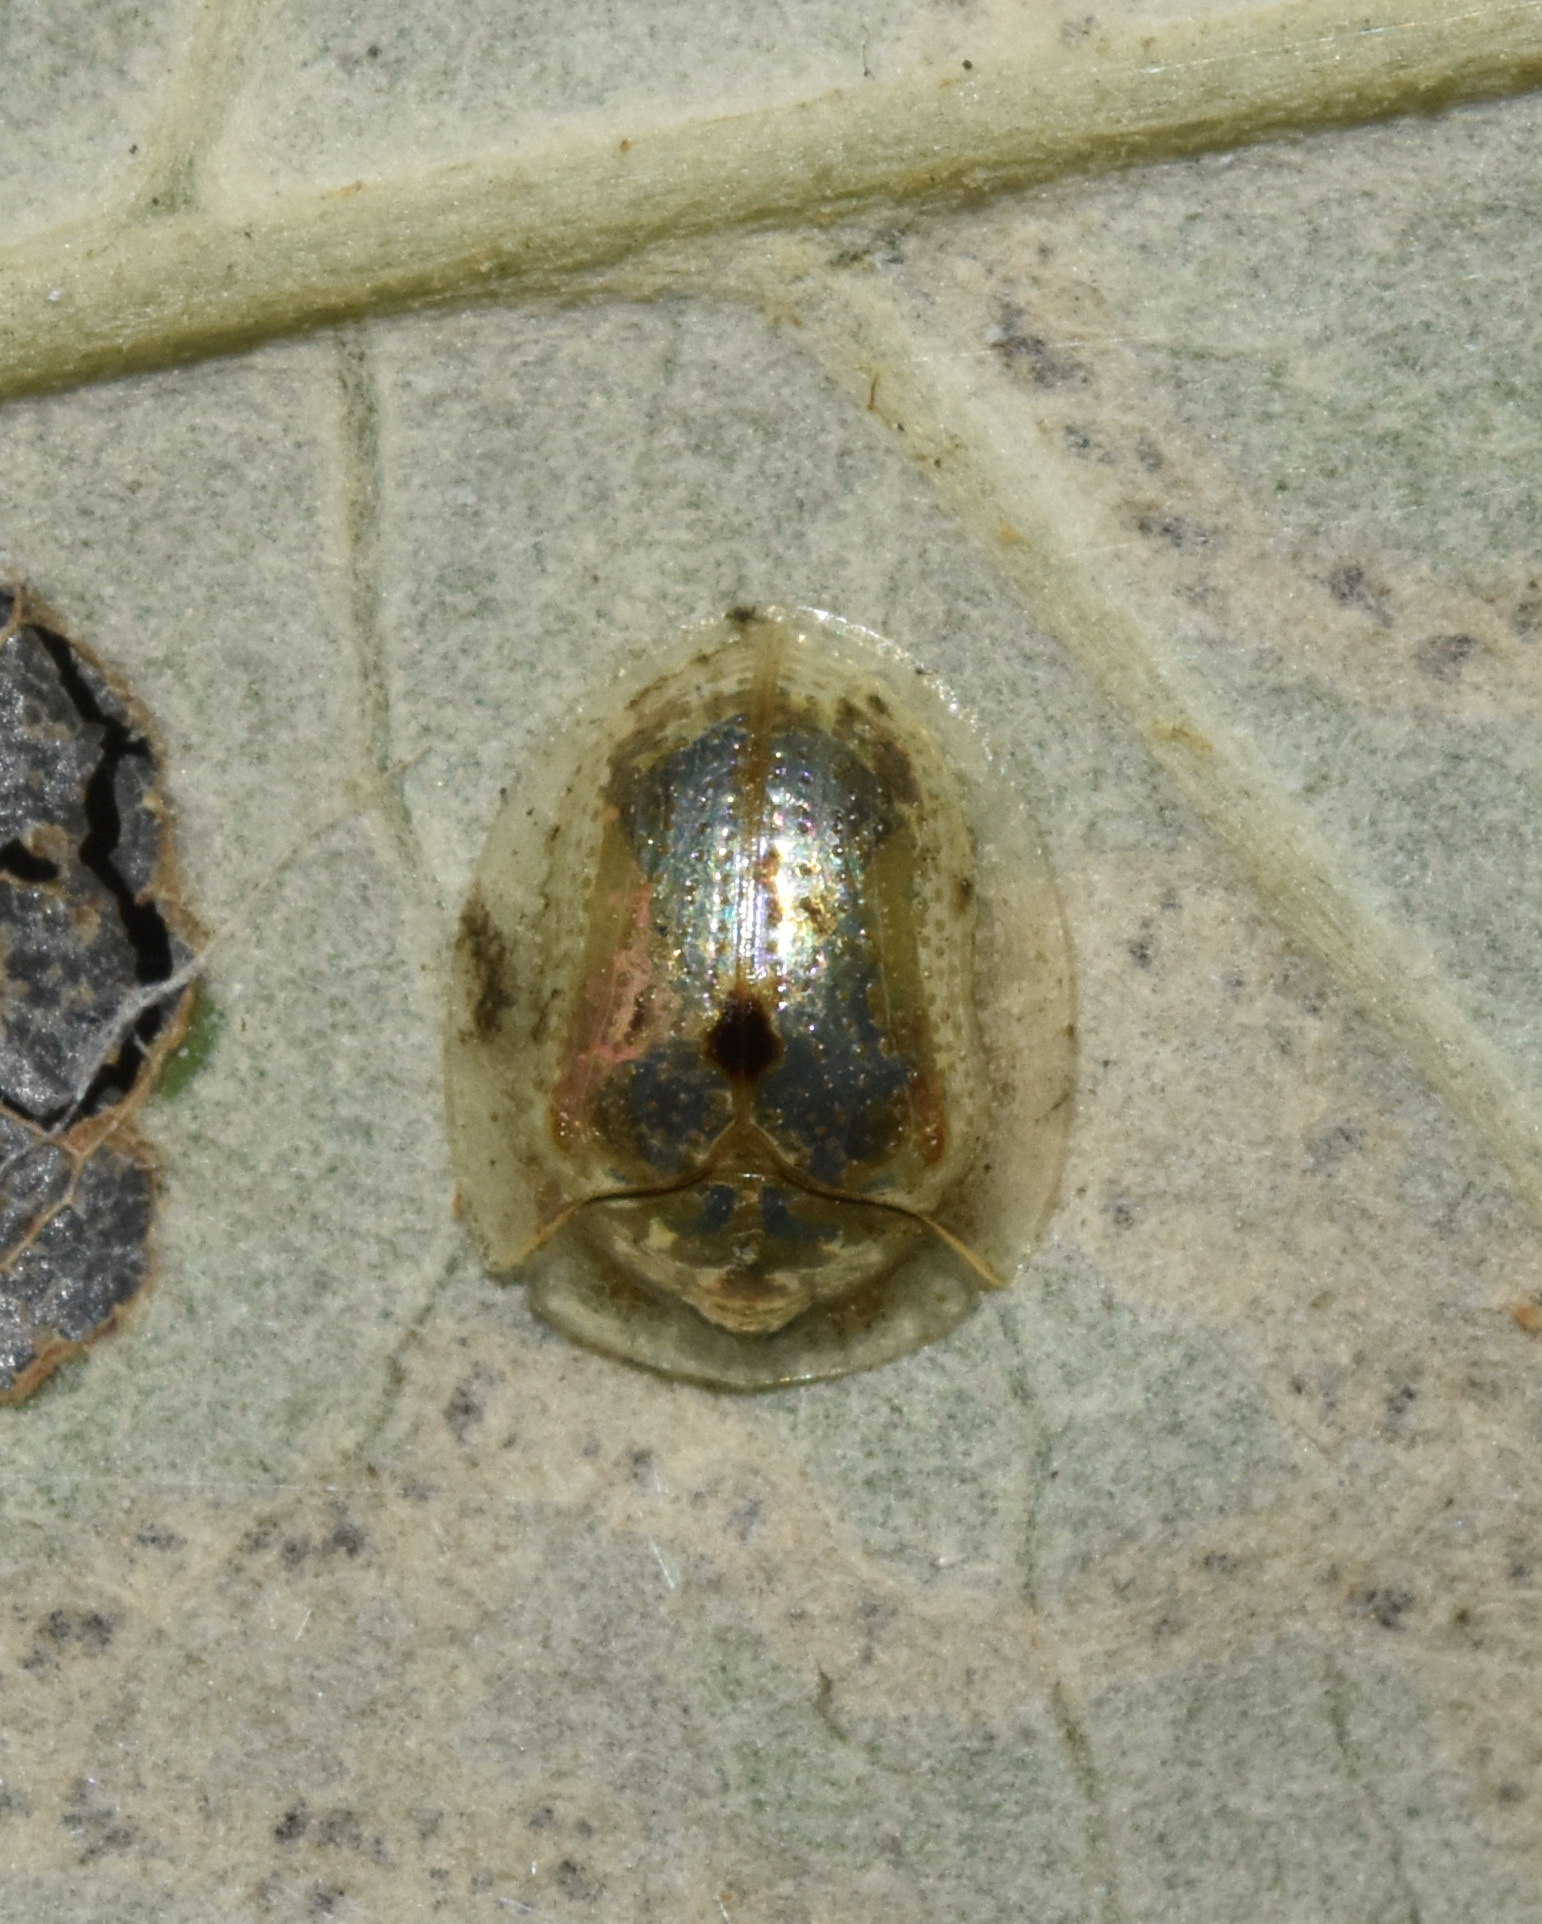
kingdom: Animalia
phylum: Arthropoda
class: Insecta
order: Coleoptera
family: Chrysomelidae
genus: Cassida
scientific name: Cassida unimaculata
